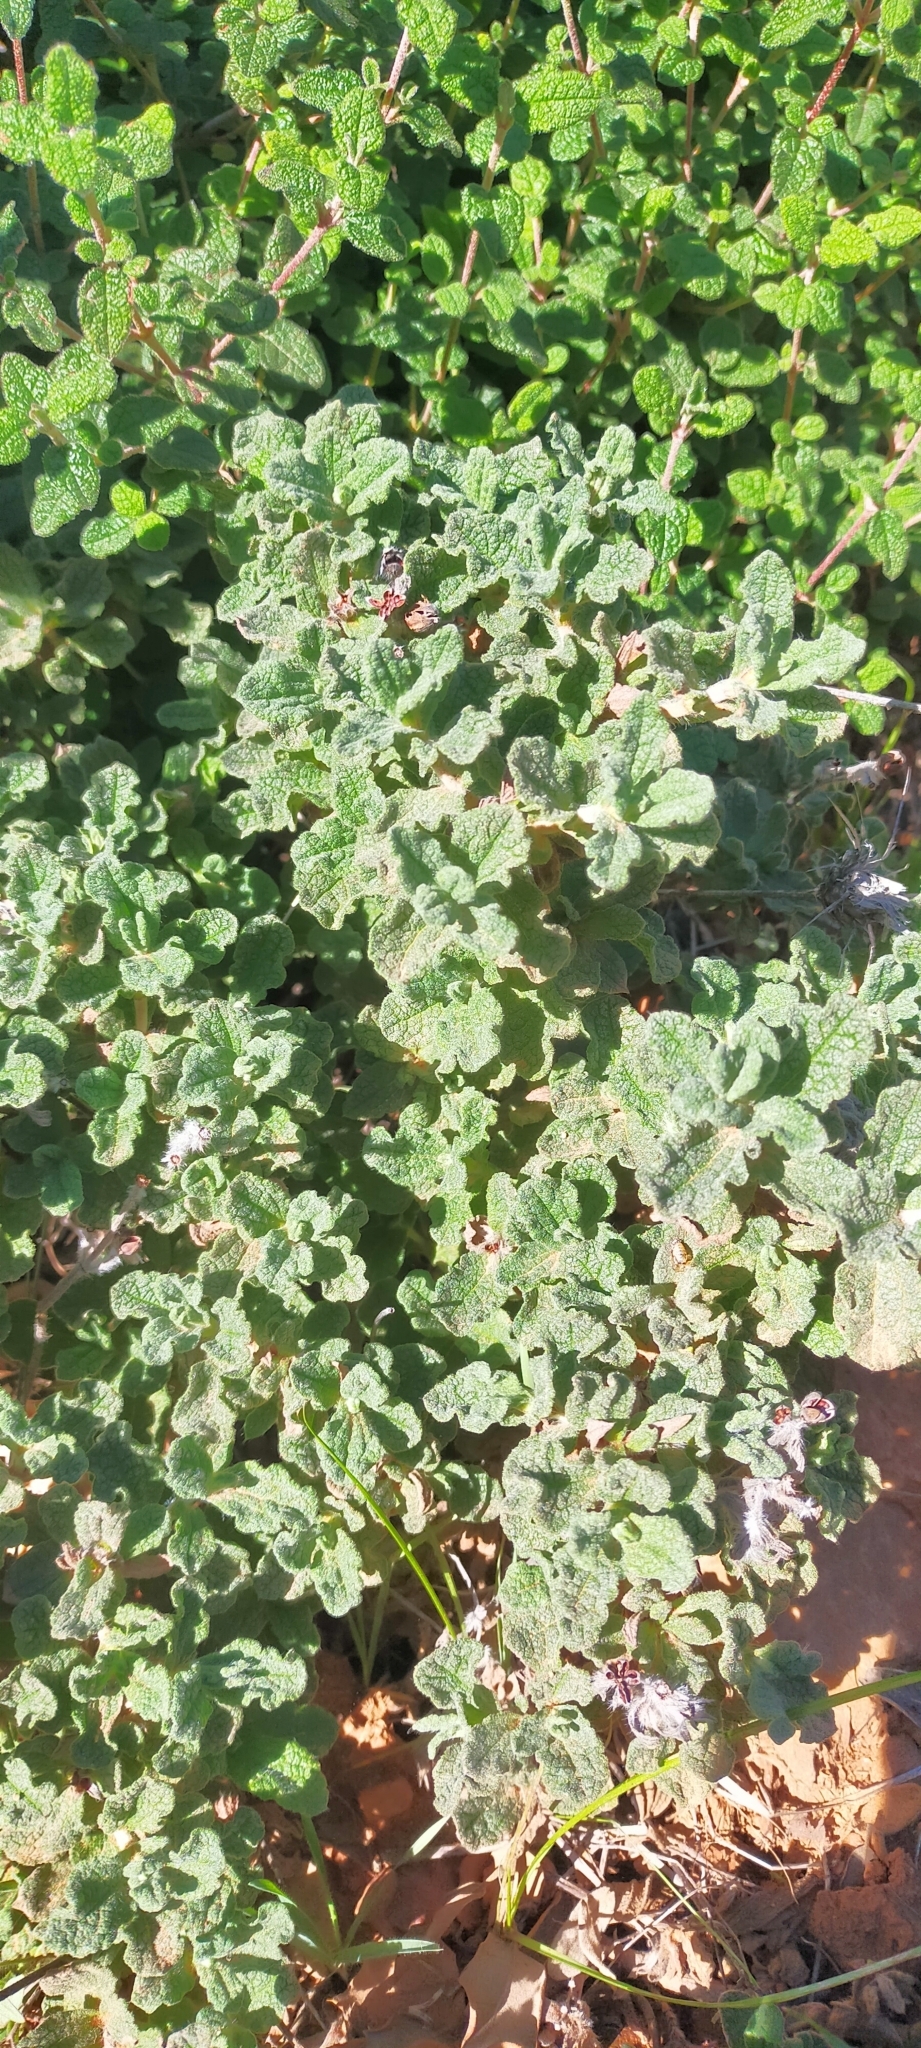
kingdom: Plantae
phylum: Tracheophyta
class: Magnoliopsida
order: Malvales
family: Cistaceae
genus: Cistus
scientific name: Cistus crispus
